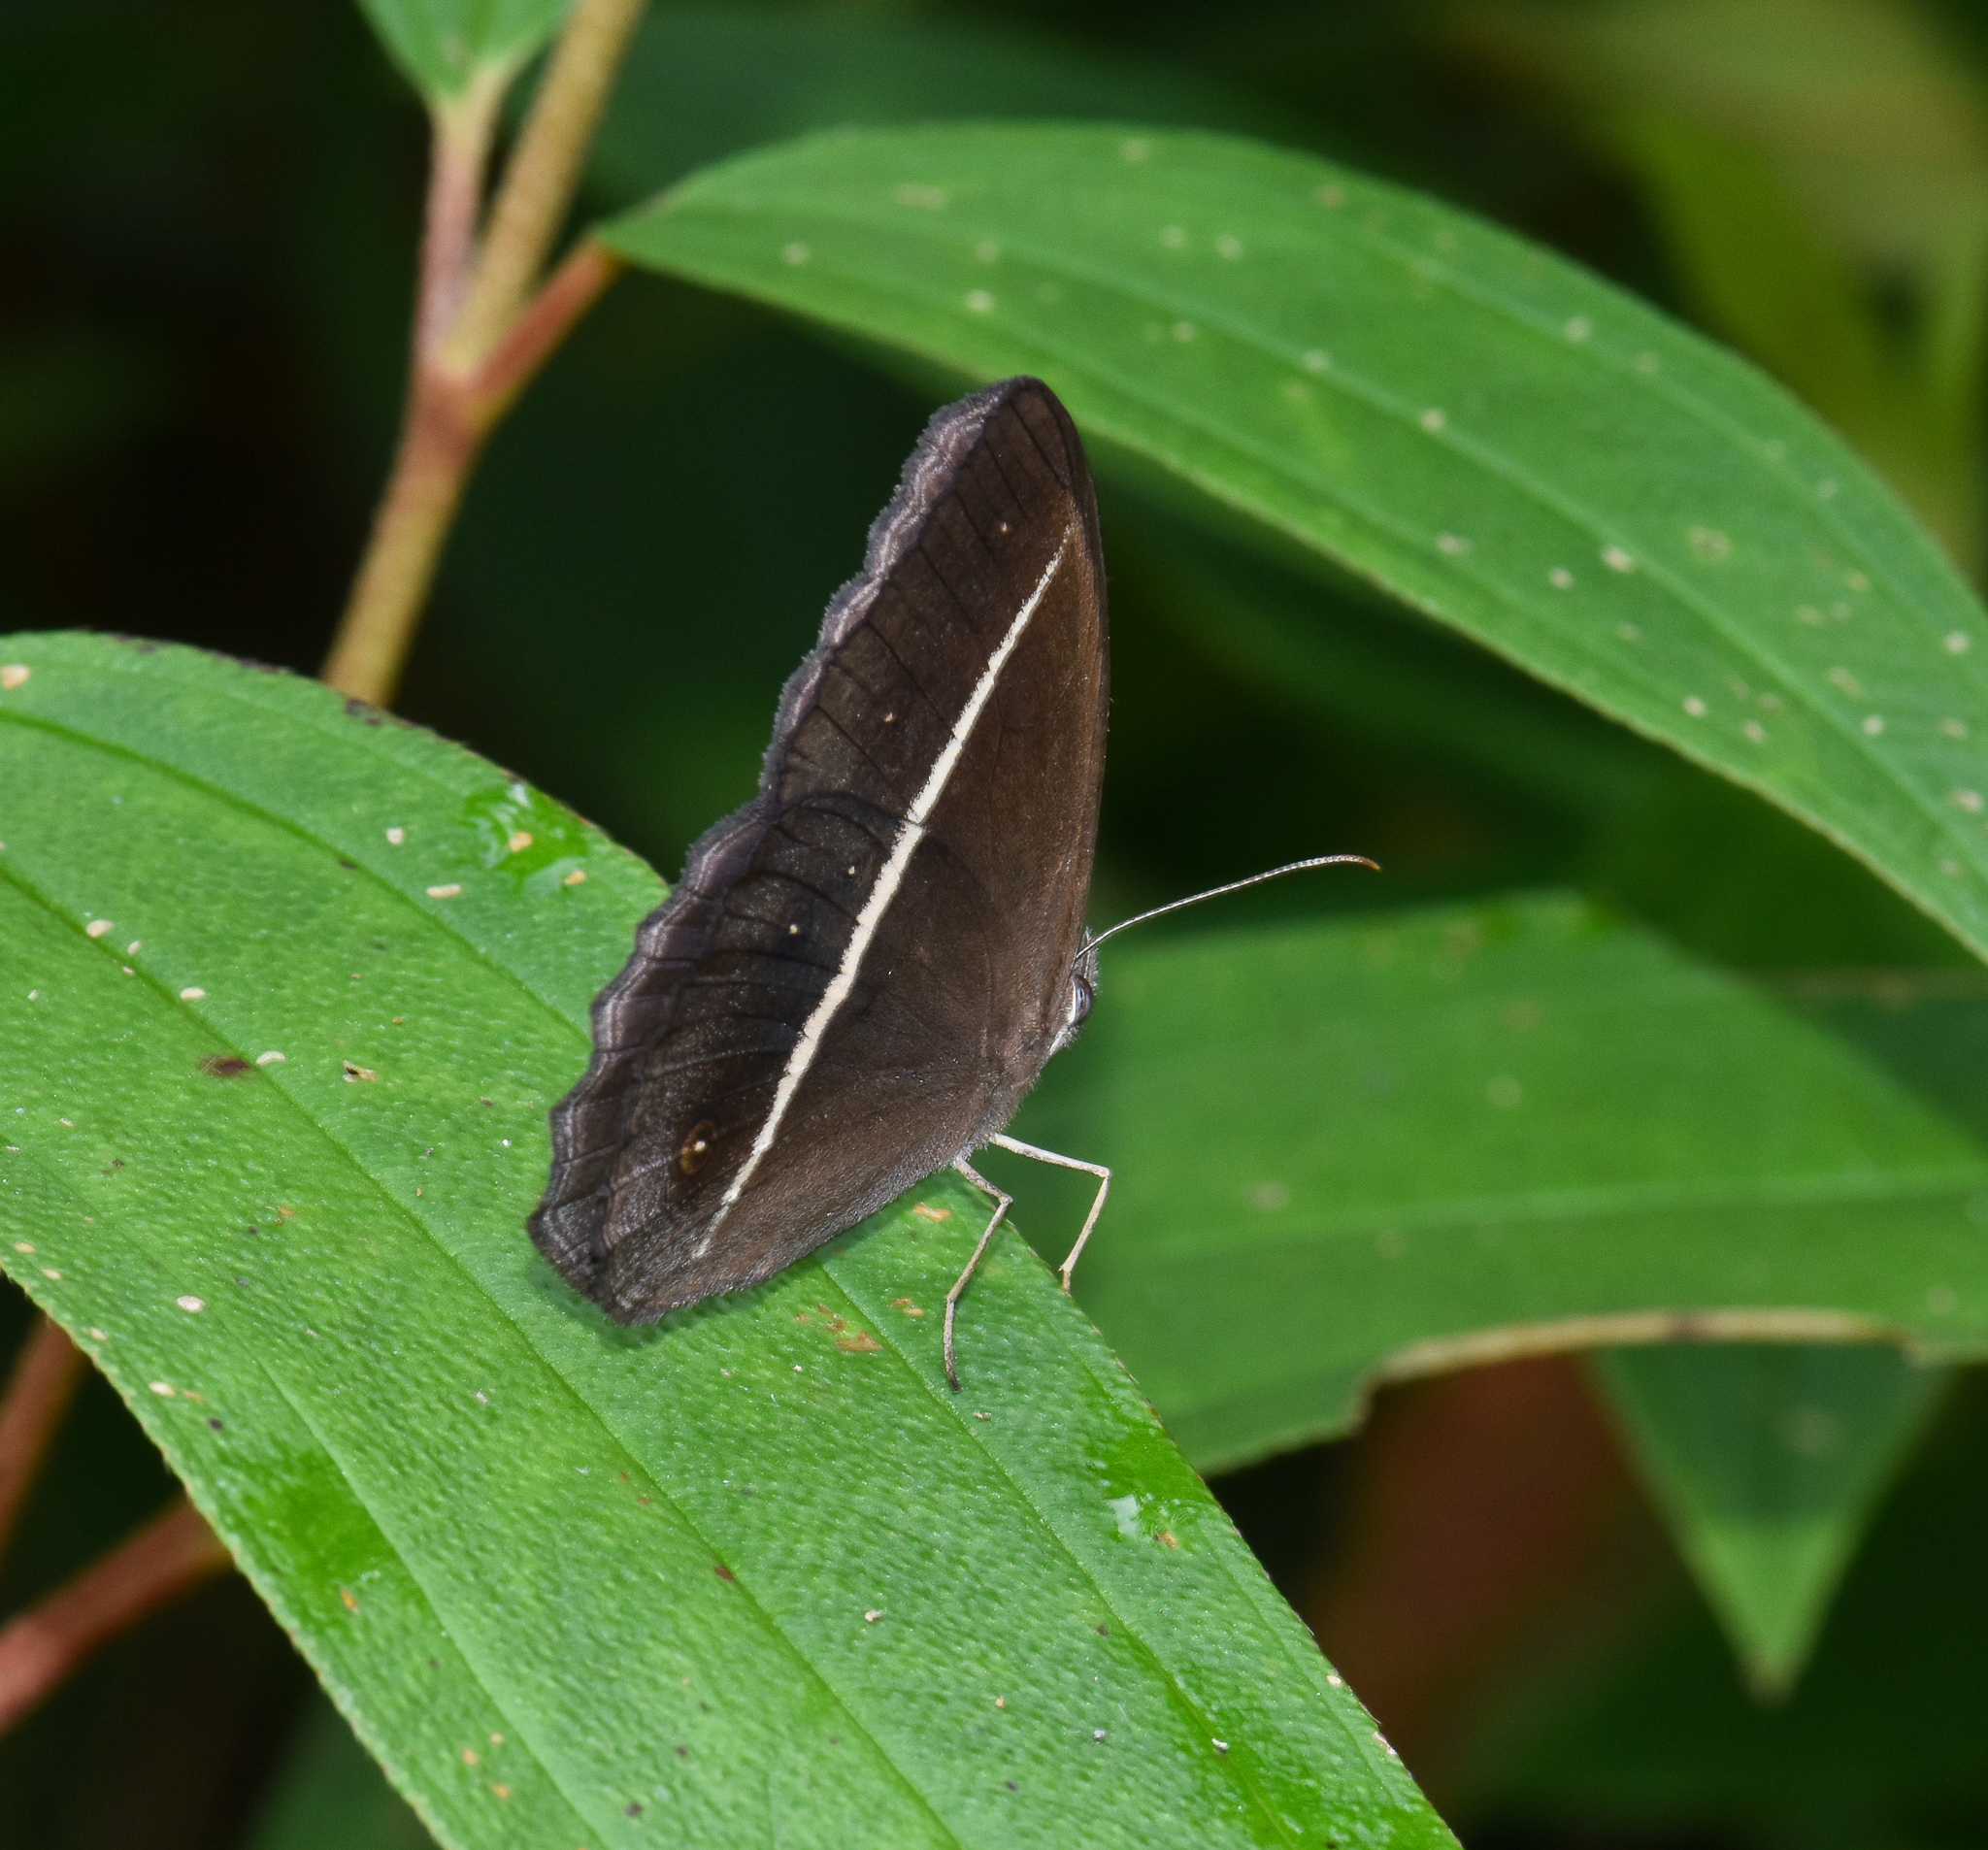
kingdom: Animalia
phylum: Arthropoda
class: Insecta
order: Lepidoptera
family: Nymphalidae
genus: Orsotriaena
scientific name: Orsotriaena medus
